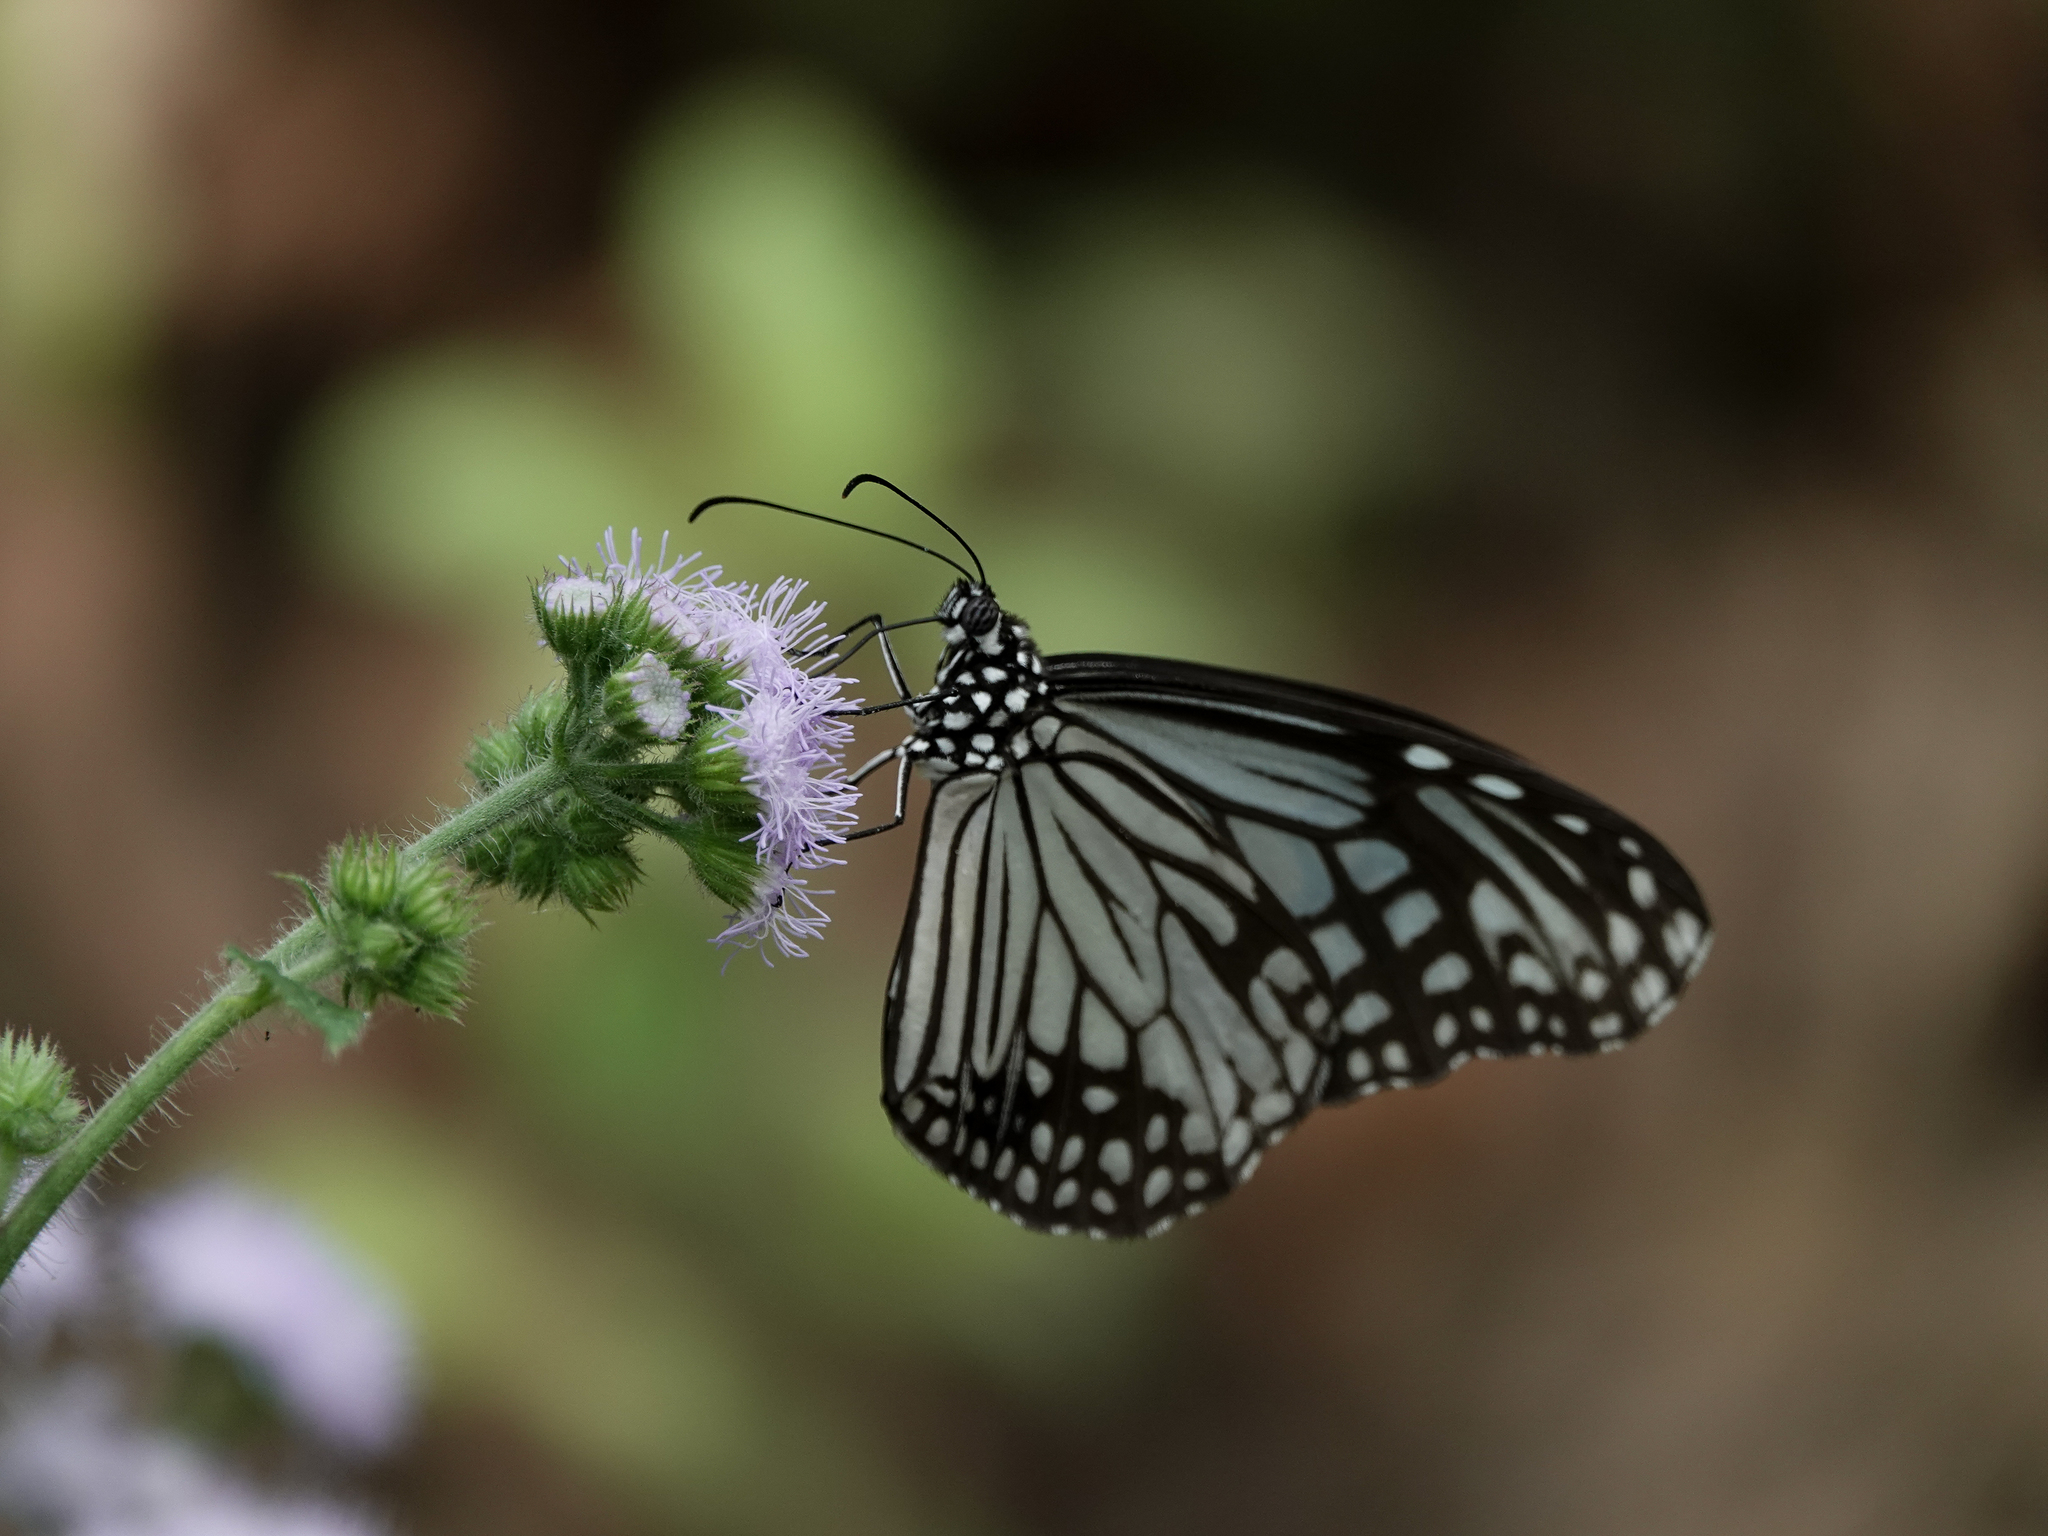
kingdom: Animalia
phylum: Arthropoda
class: Insecta
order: Lepidoptera
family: Nymphalidae
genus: Parantica
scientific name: Parantica aglea
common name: Glassy tiger
